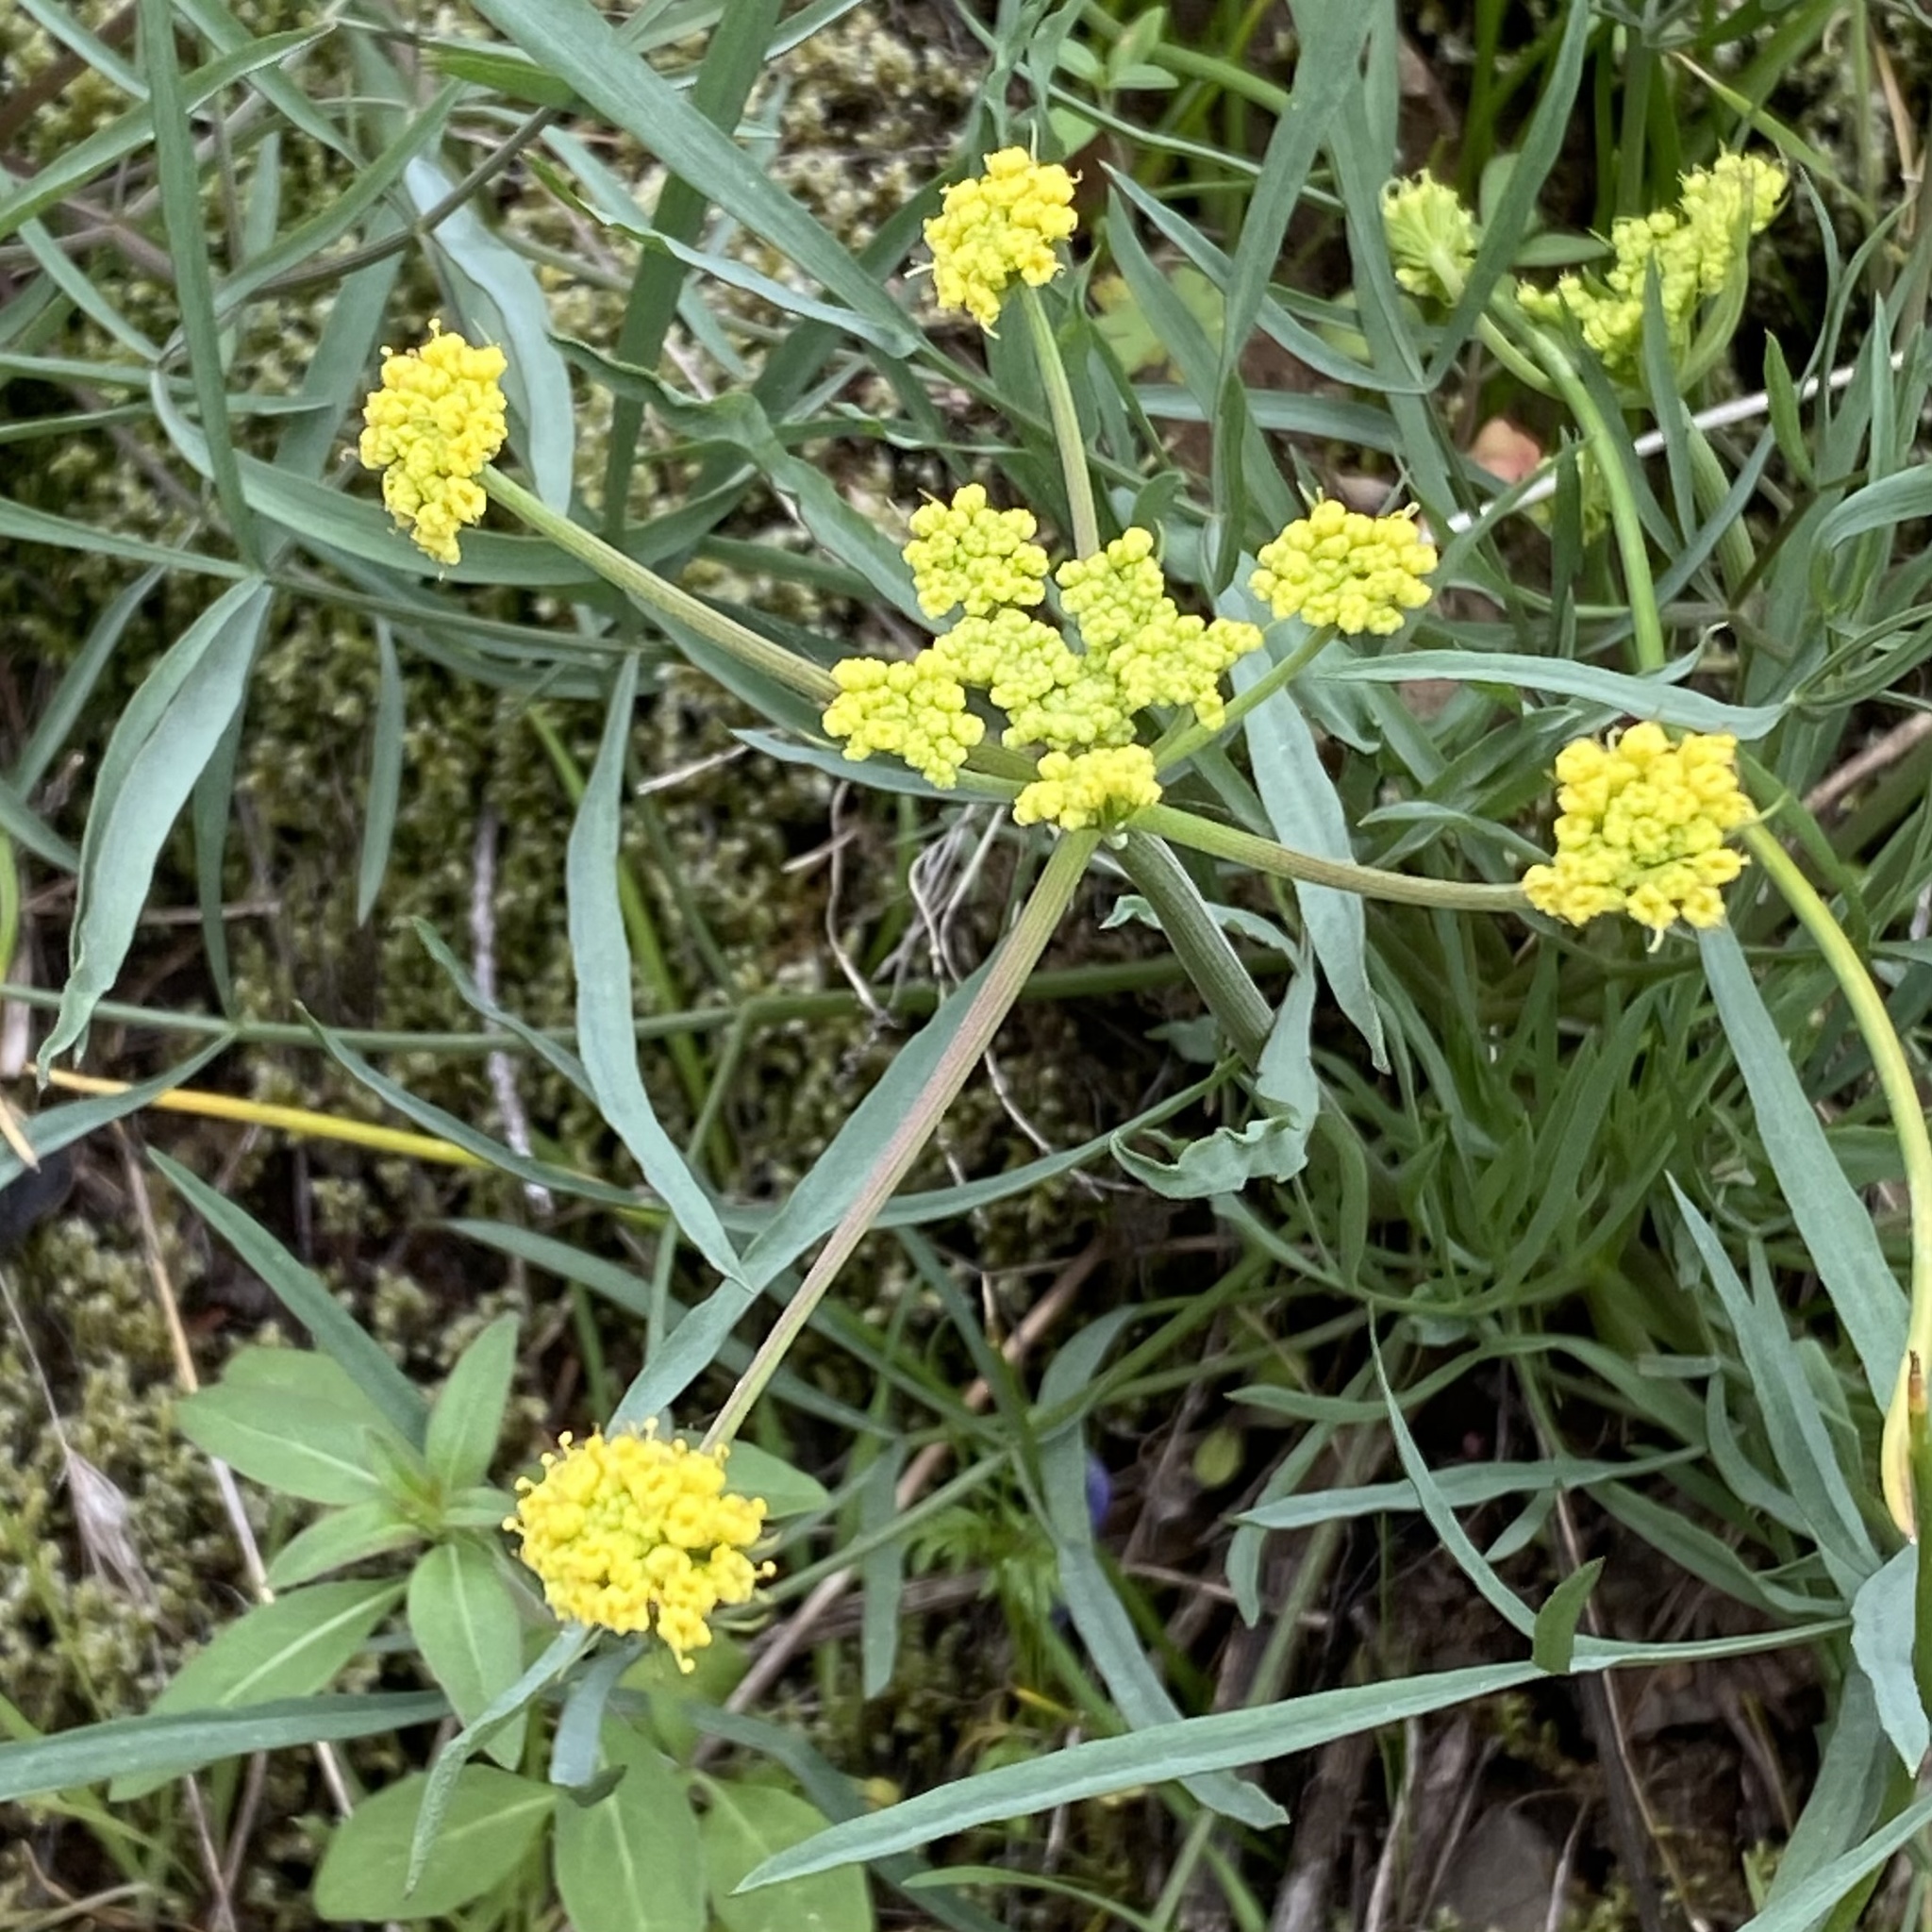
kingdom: Plantae
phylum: Tracheophyta
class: Magnoliopsida
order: Apiales
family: Apiaceae
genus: Lomatium
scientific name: Lomatium triternatum
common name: Ternate lomatium
